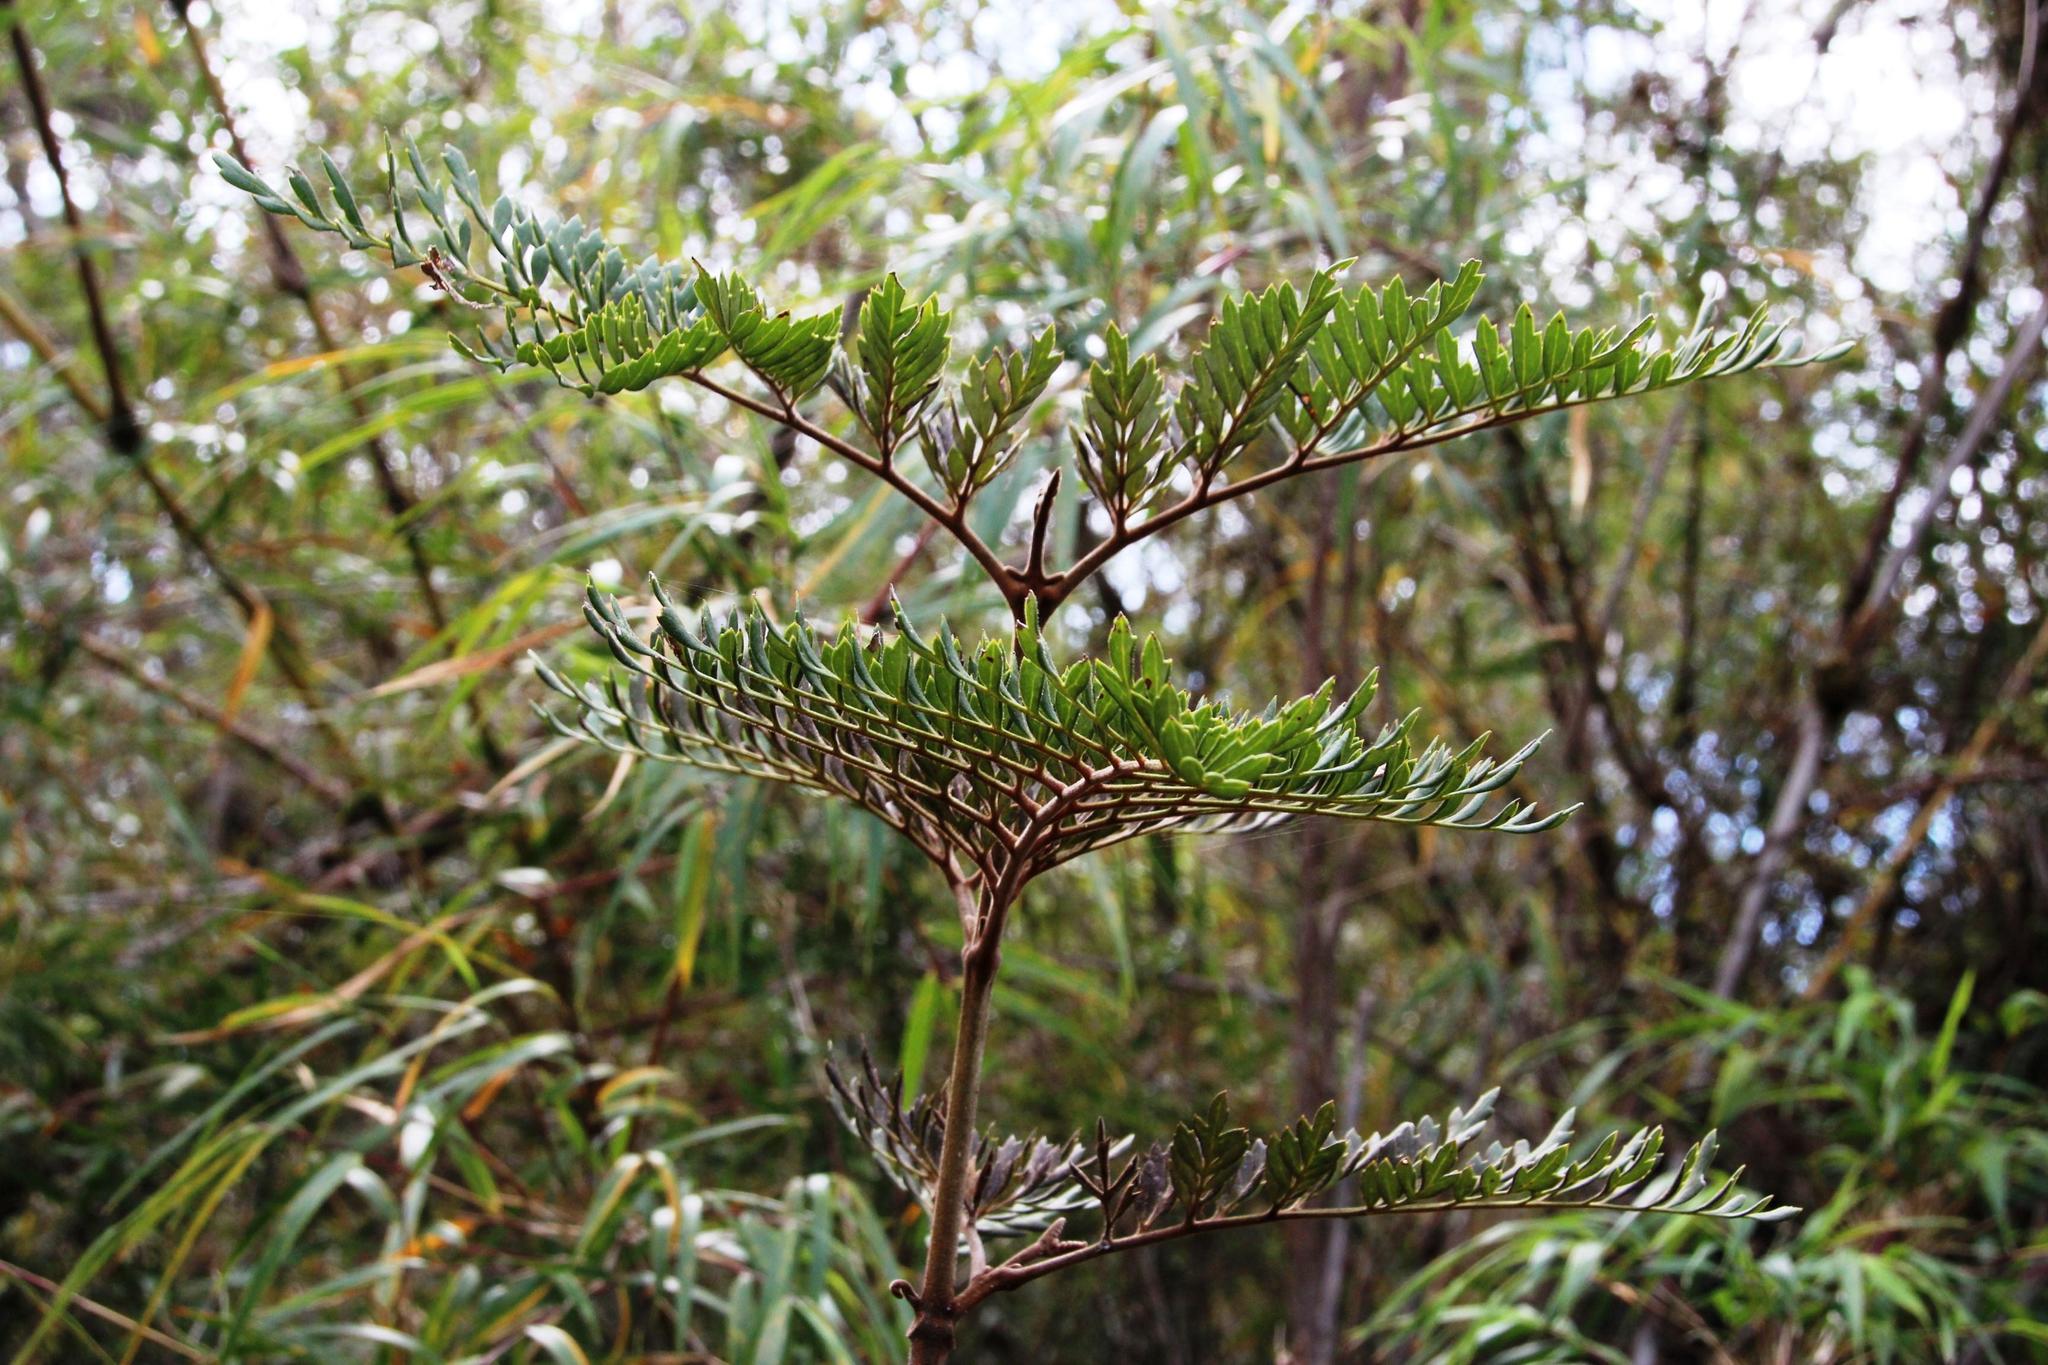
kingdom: Plantae
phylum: Tracheophyta
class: Magnoliopsida
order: Proteales
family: Proteaceae
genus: Lomatia
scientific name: Lomatia ferruginea
